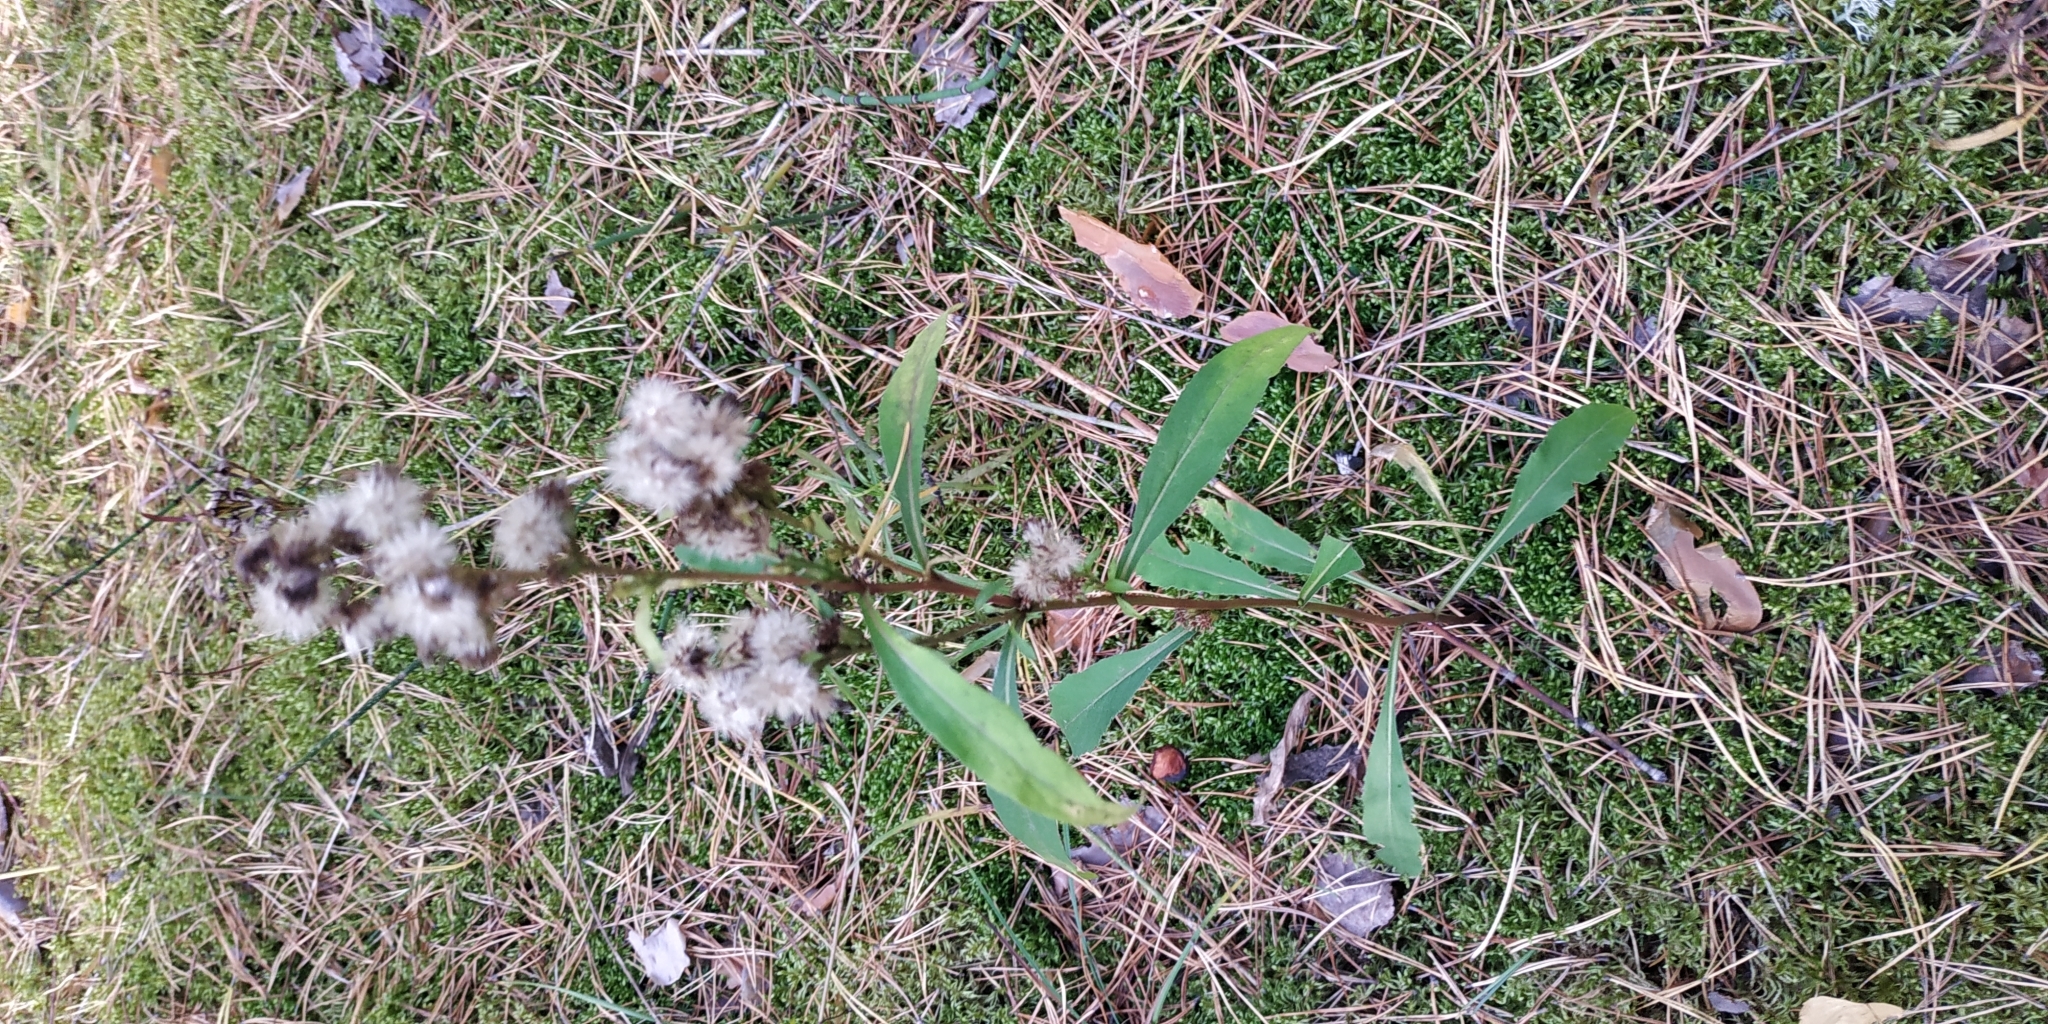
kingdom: Plantae
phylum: Tracheophyta
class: Magnoliopsida
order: Asterales
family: Asteraceae
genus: Solidago
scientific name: Solidago virgaurea
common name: Goldenrod
